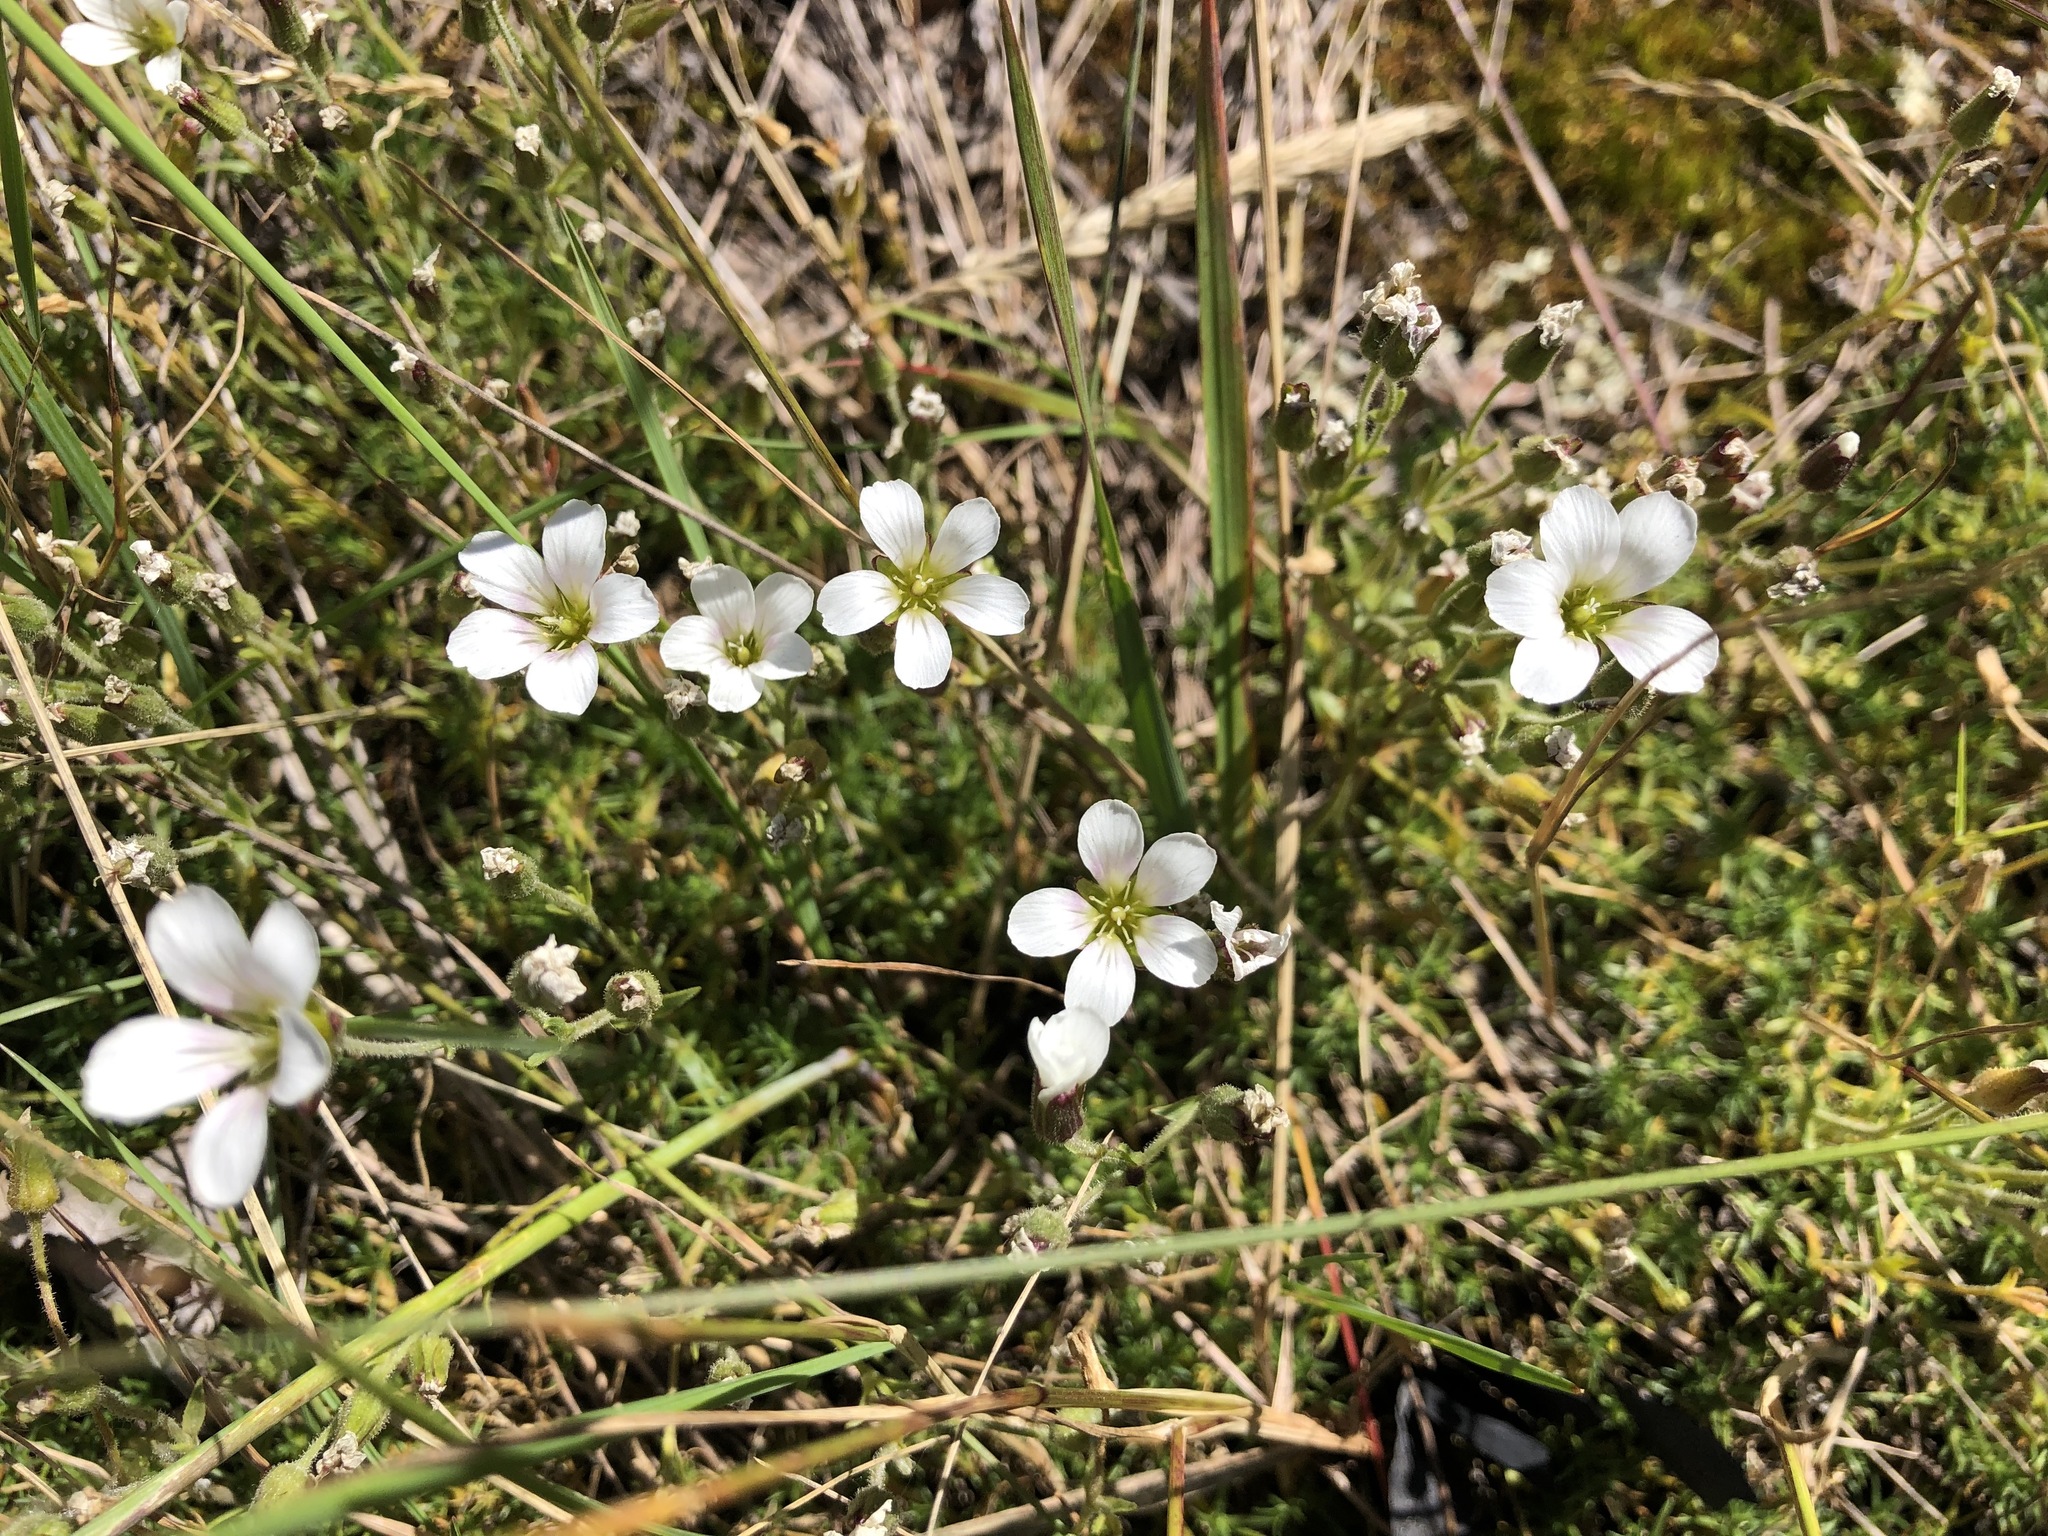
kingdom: Plantae
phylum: Tracheophyta
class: Magnoliopsida
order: Caryophyllales
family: Caryophyllaceae
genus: Cherleria
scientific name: Cherleria arctica
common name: Arctic sandwort
